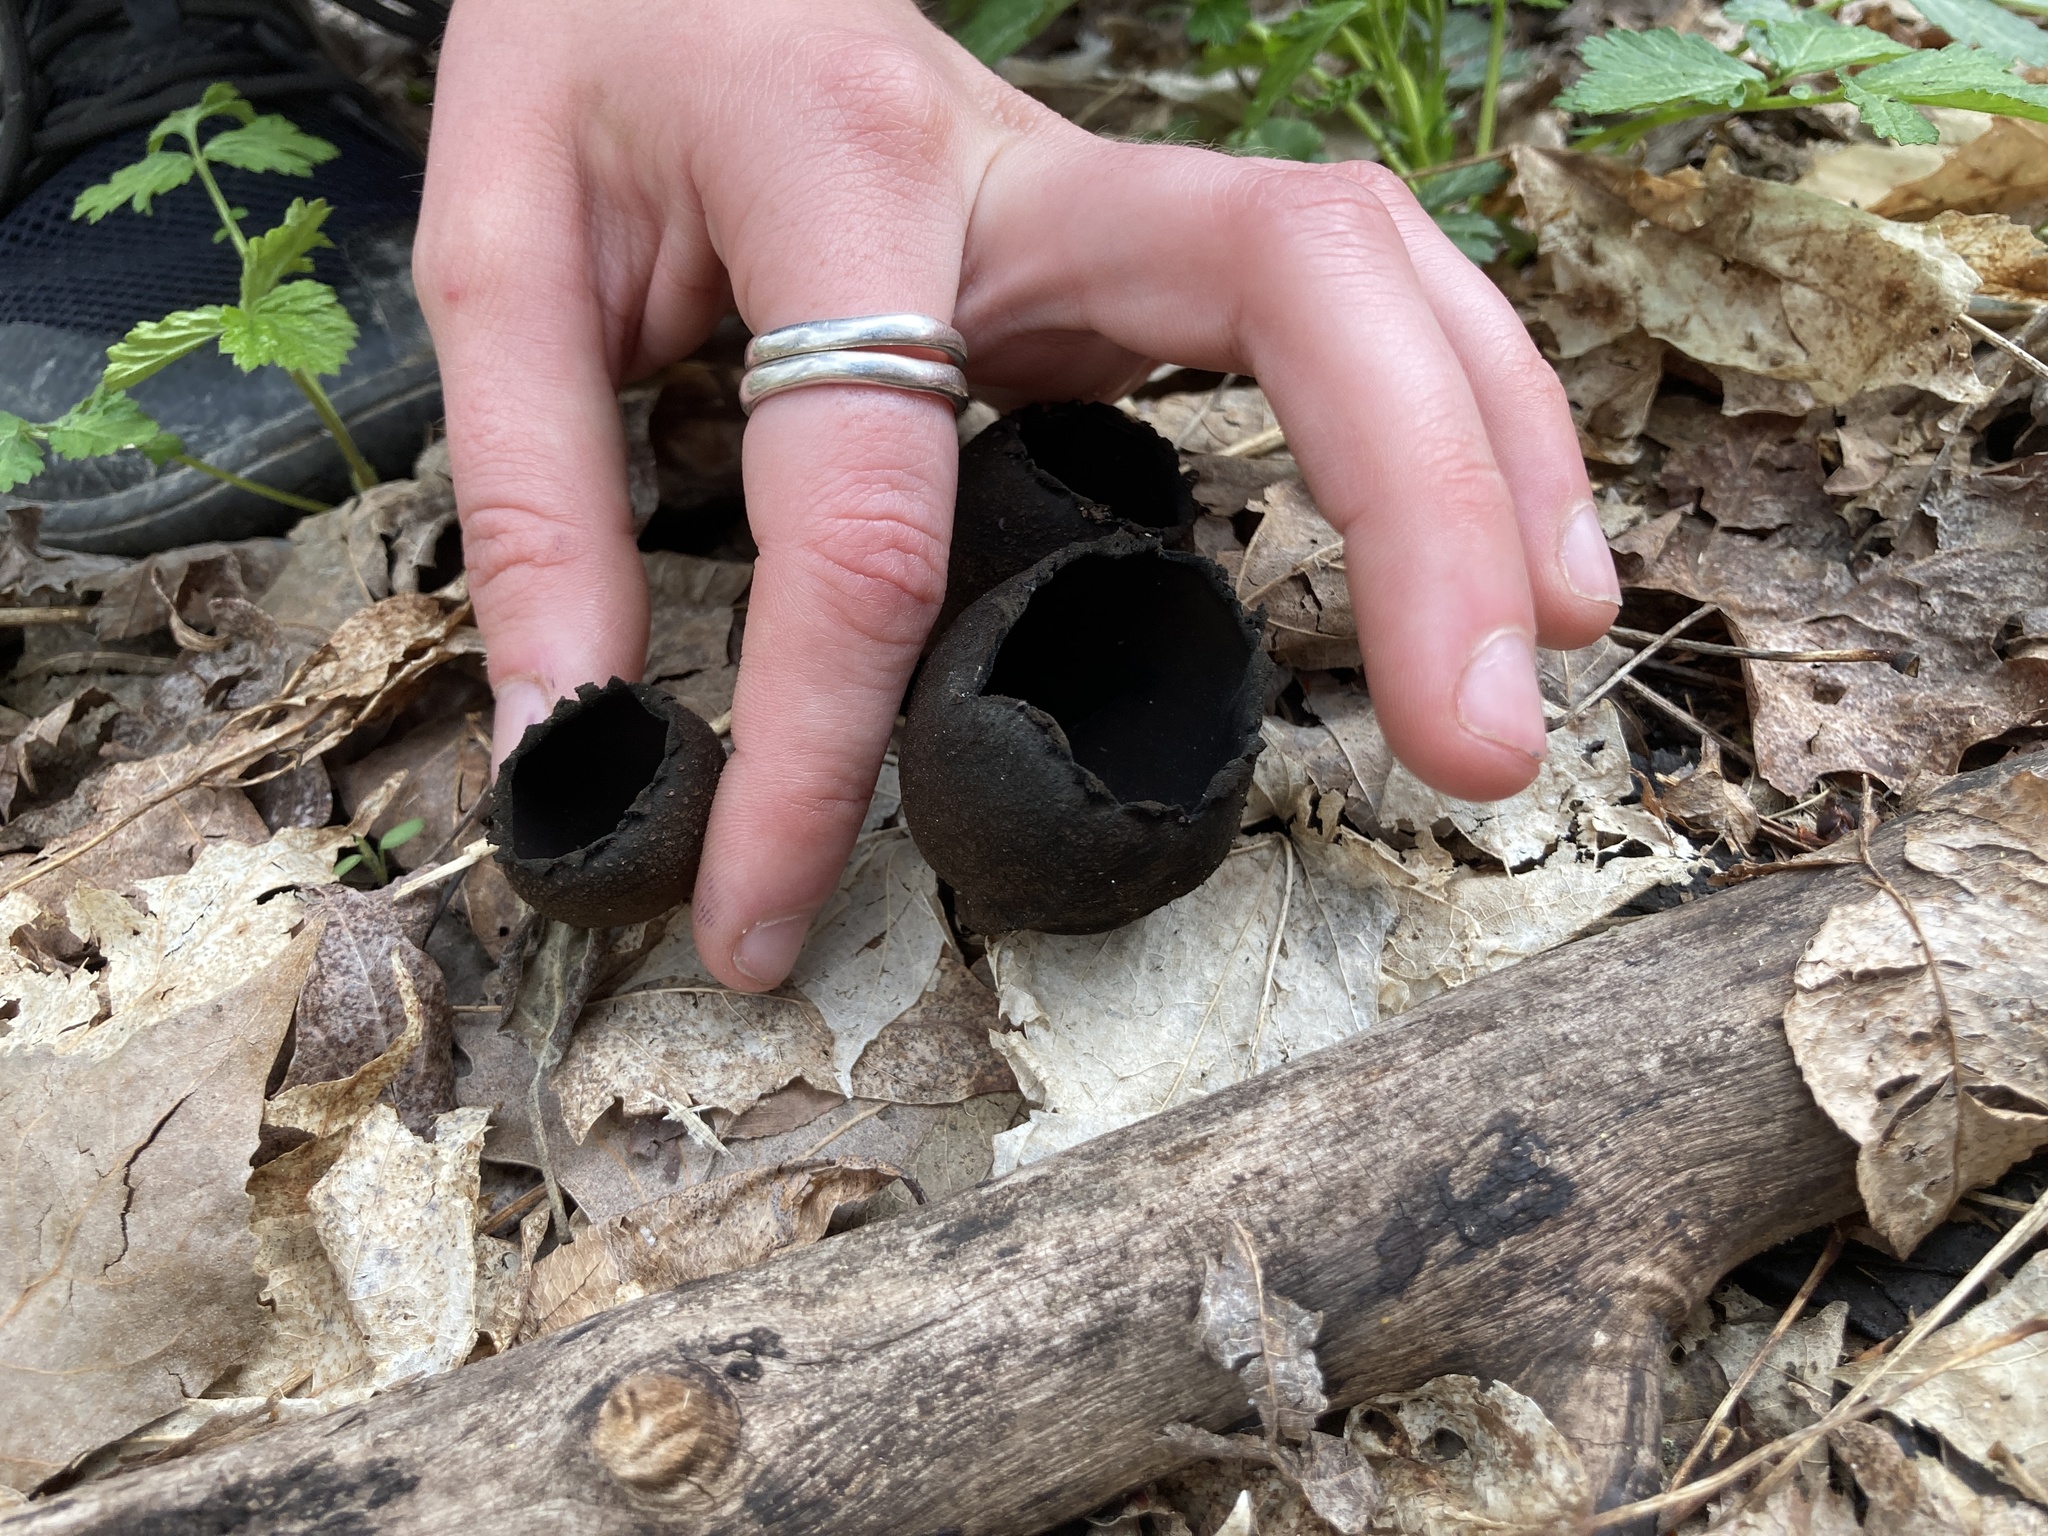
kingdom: Fungi
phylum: Ascomycota
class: Pezizomycetes
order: Pezizales
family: Sarcosomataceae
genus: Urnula
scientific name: Urnula craterium
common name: Devil's urn
